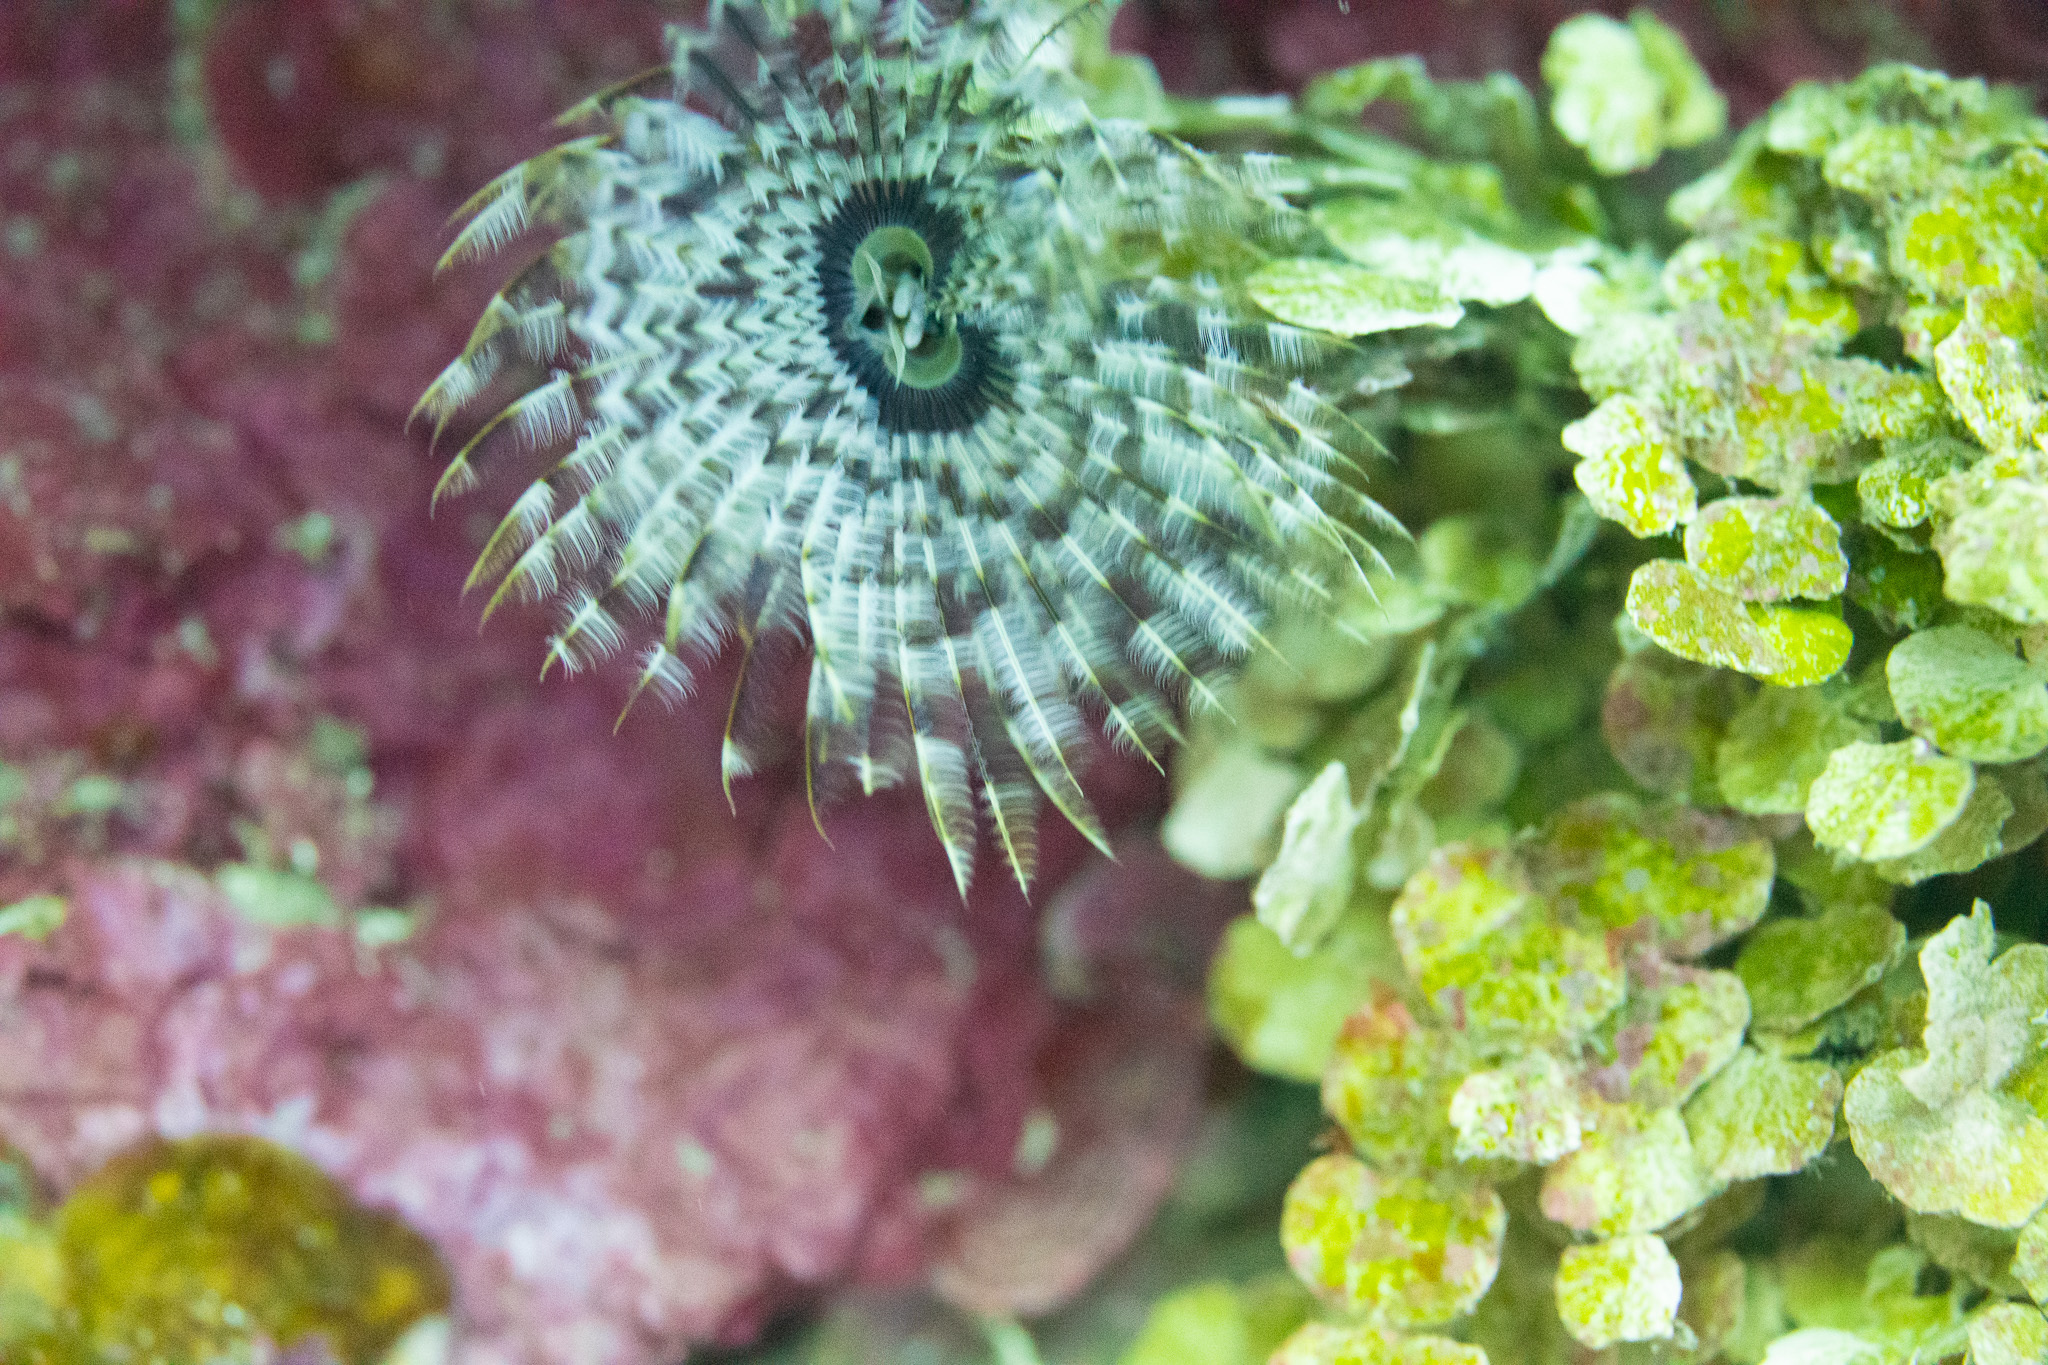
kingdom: Animalia
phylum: Annelida
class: Polychaeta
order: Sabellida
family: Sabellidae
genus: Sabellastarte
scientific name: Sabellastarte magnifica
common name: Giant feather-duster worm
